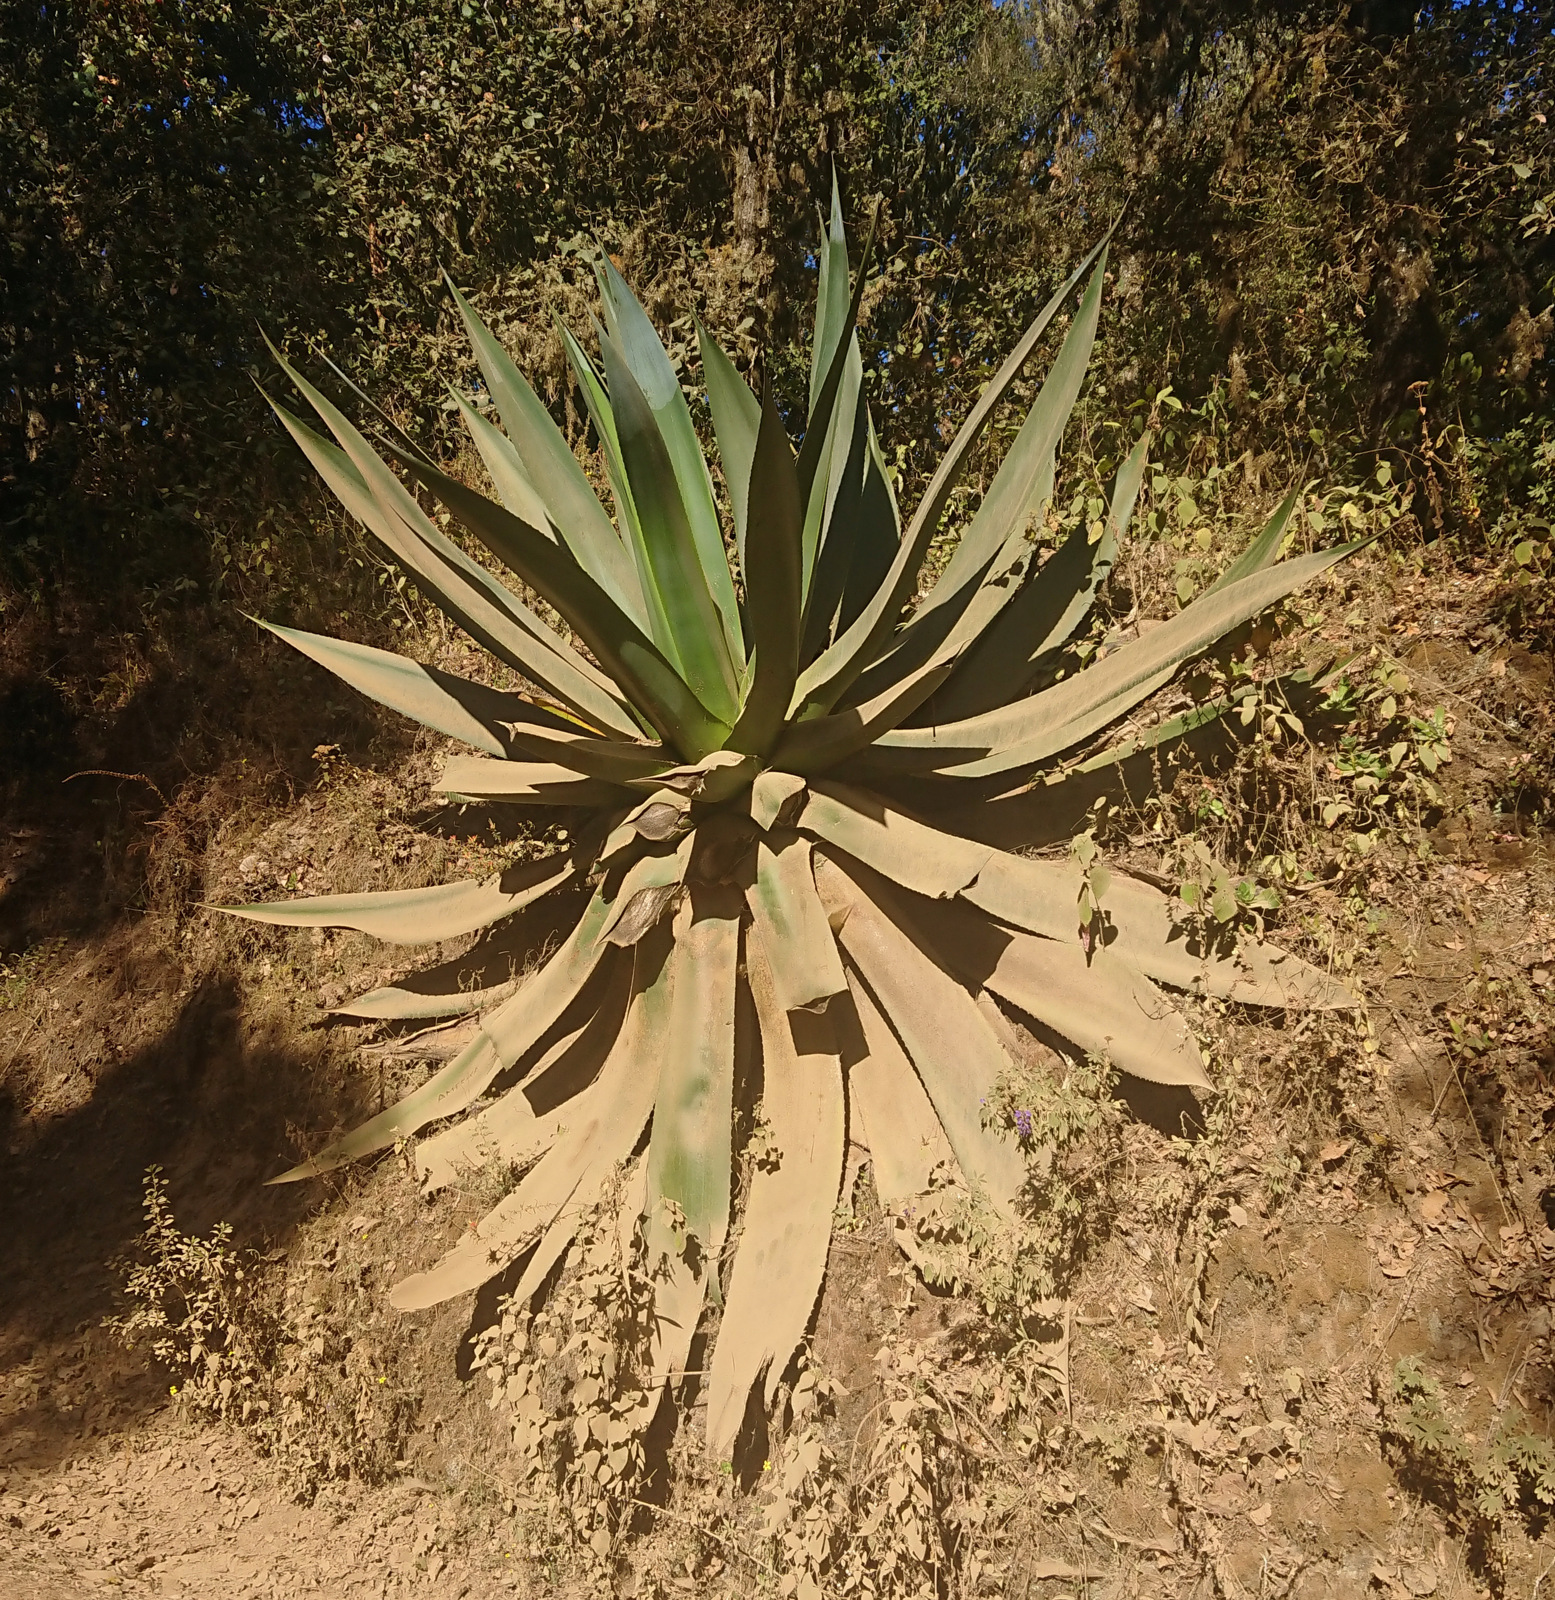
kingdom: Plantae
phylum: Tracheophyta
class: Liliopsida
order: Asparagales
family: Asparagaceae
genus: Agave
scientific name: Agave atrovirens
